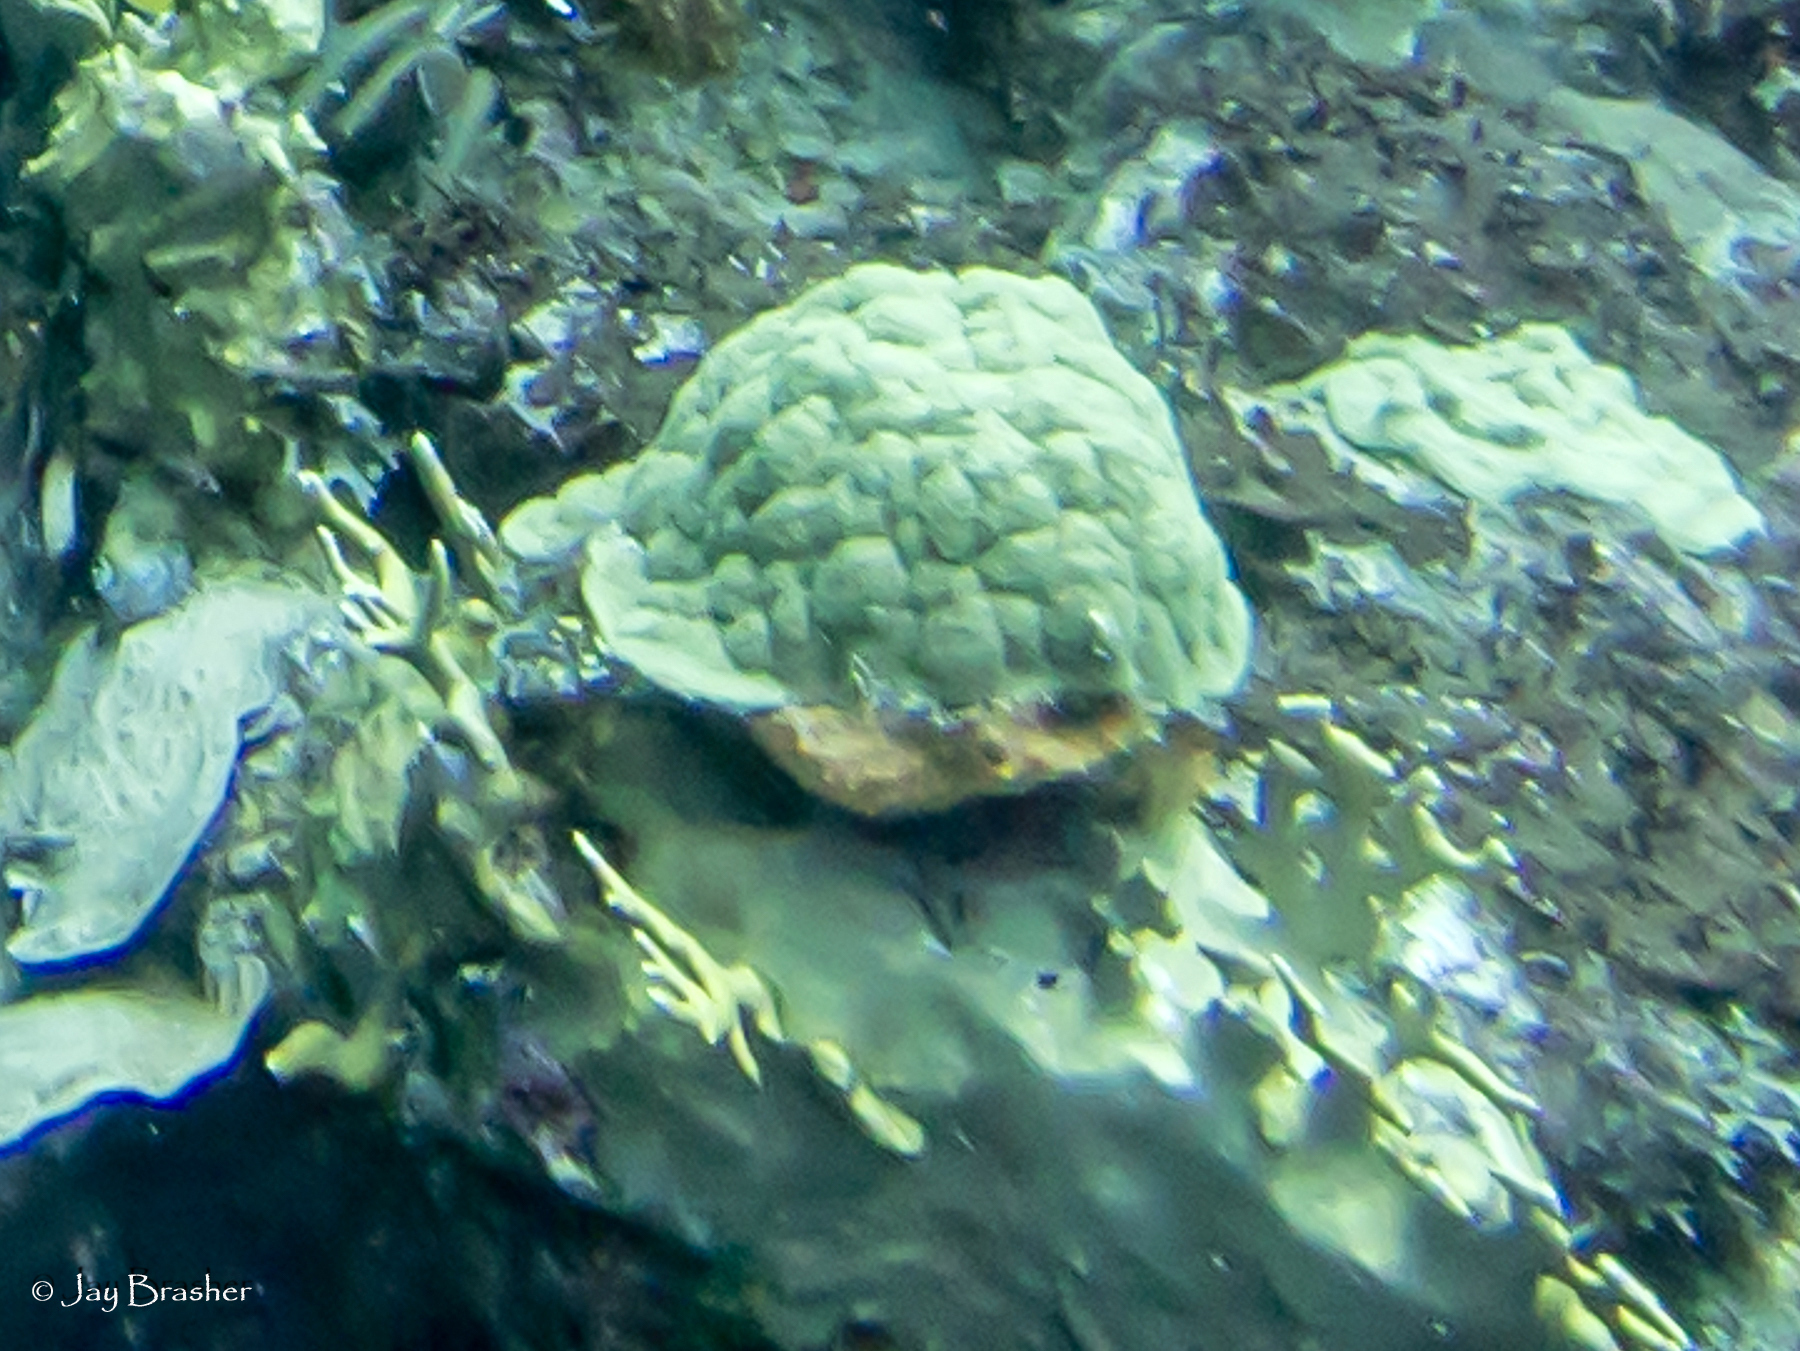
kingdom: Animalia
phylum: Cnidaria
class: Anthozoa
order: Scleractinia
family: Poritidae
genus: Porites
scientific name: Porites astreoides
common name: Mustard hill coral
